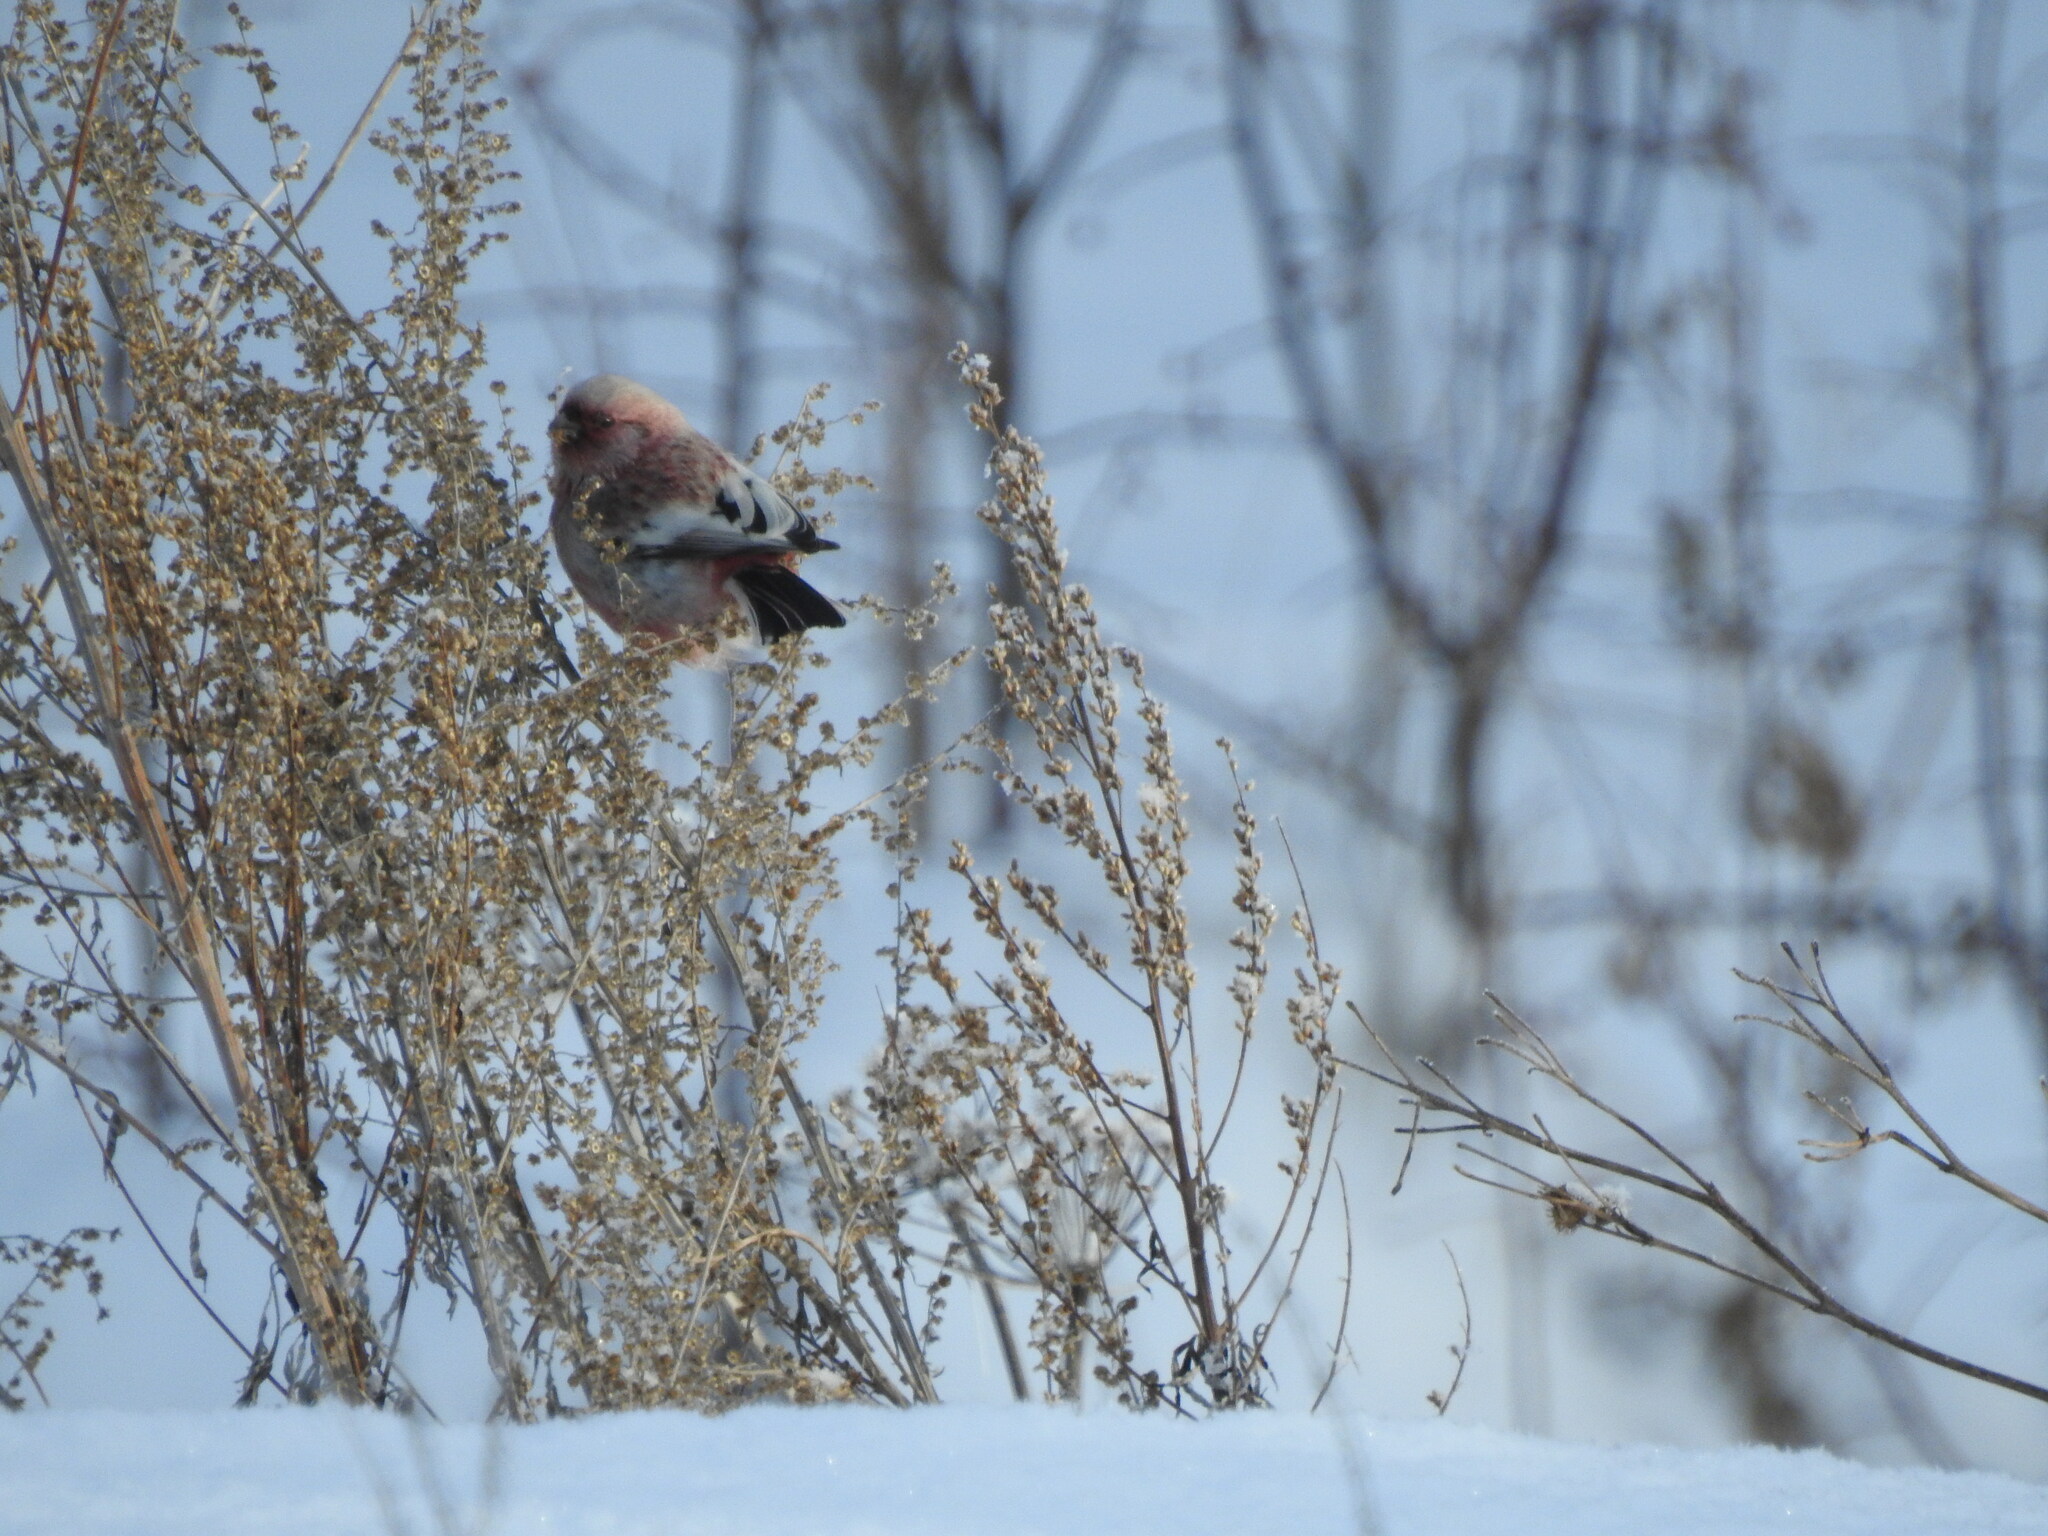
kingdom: Animalia
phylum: Chordata
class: Aves
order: Passeriformes
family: Fringillidae
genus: Carpodacus
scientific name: Carpodacus sibiricus
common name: Long-tailed rosefinch
